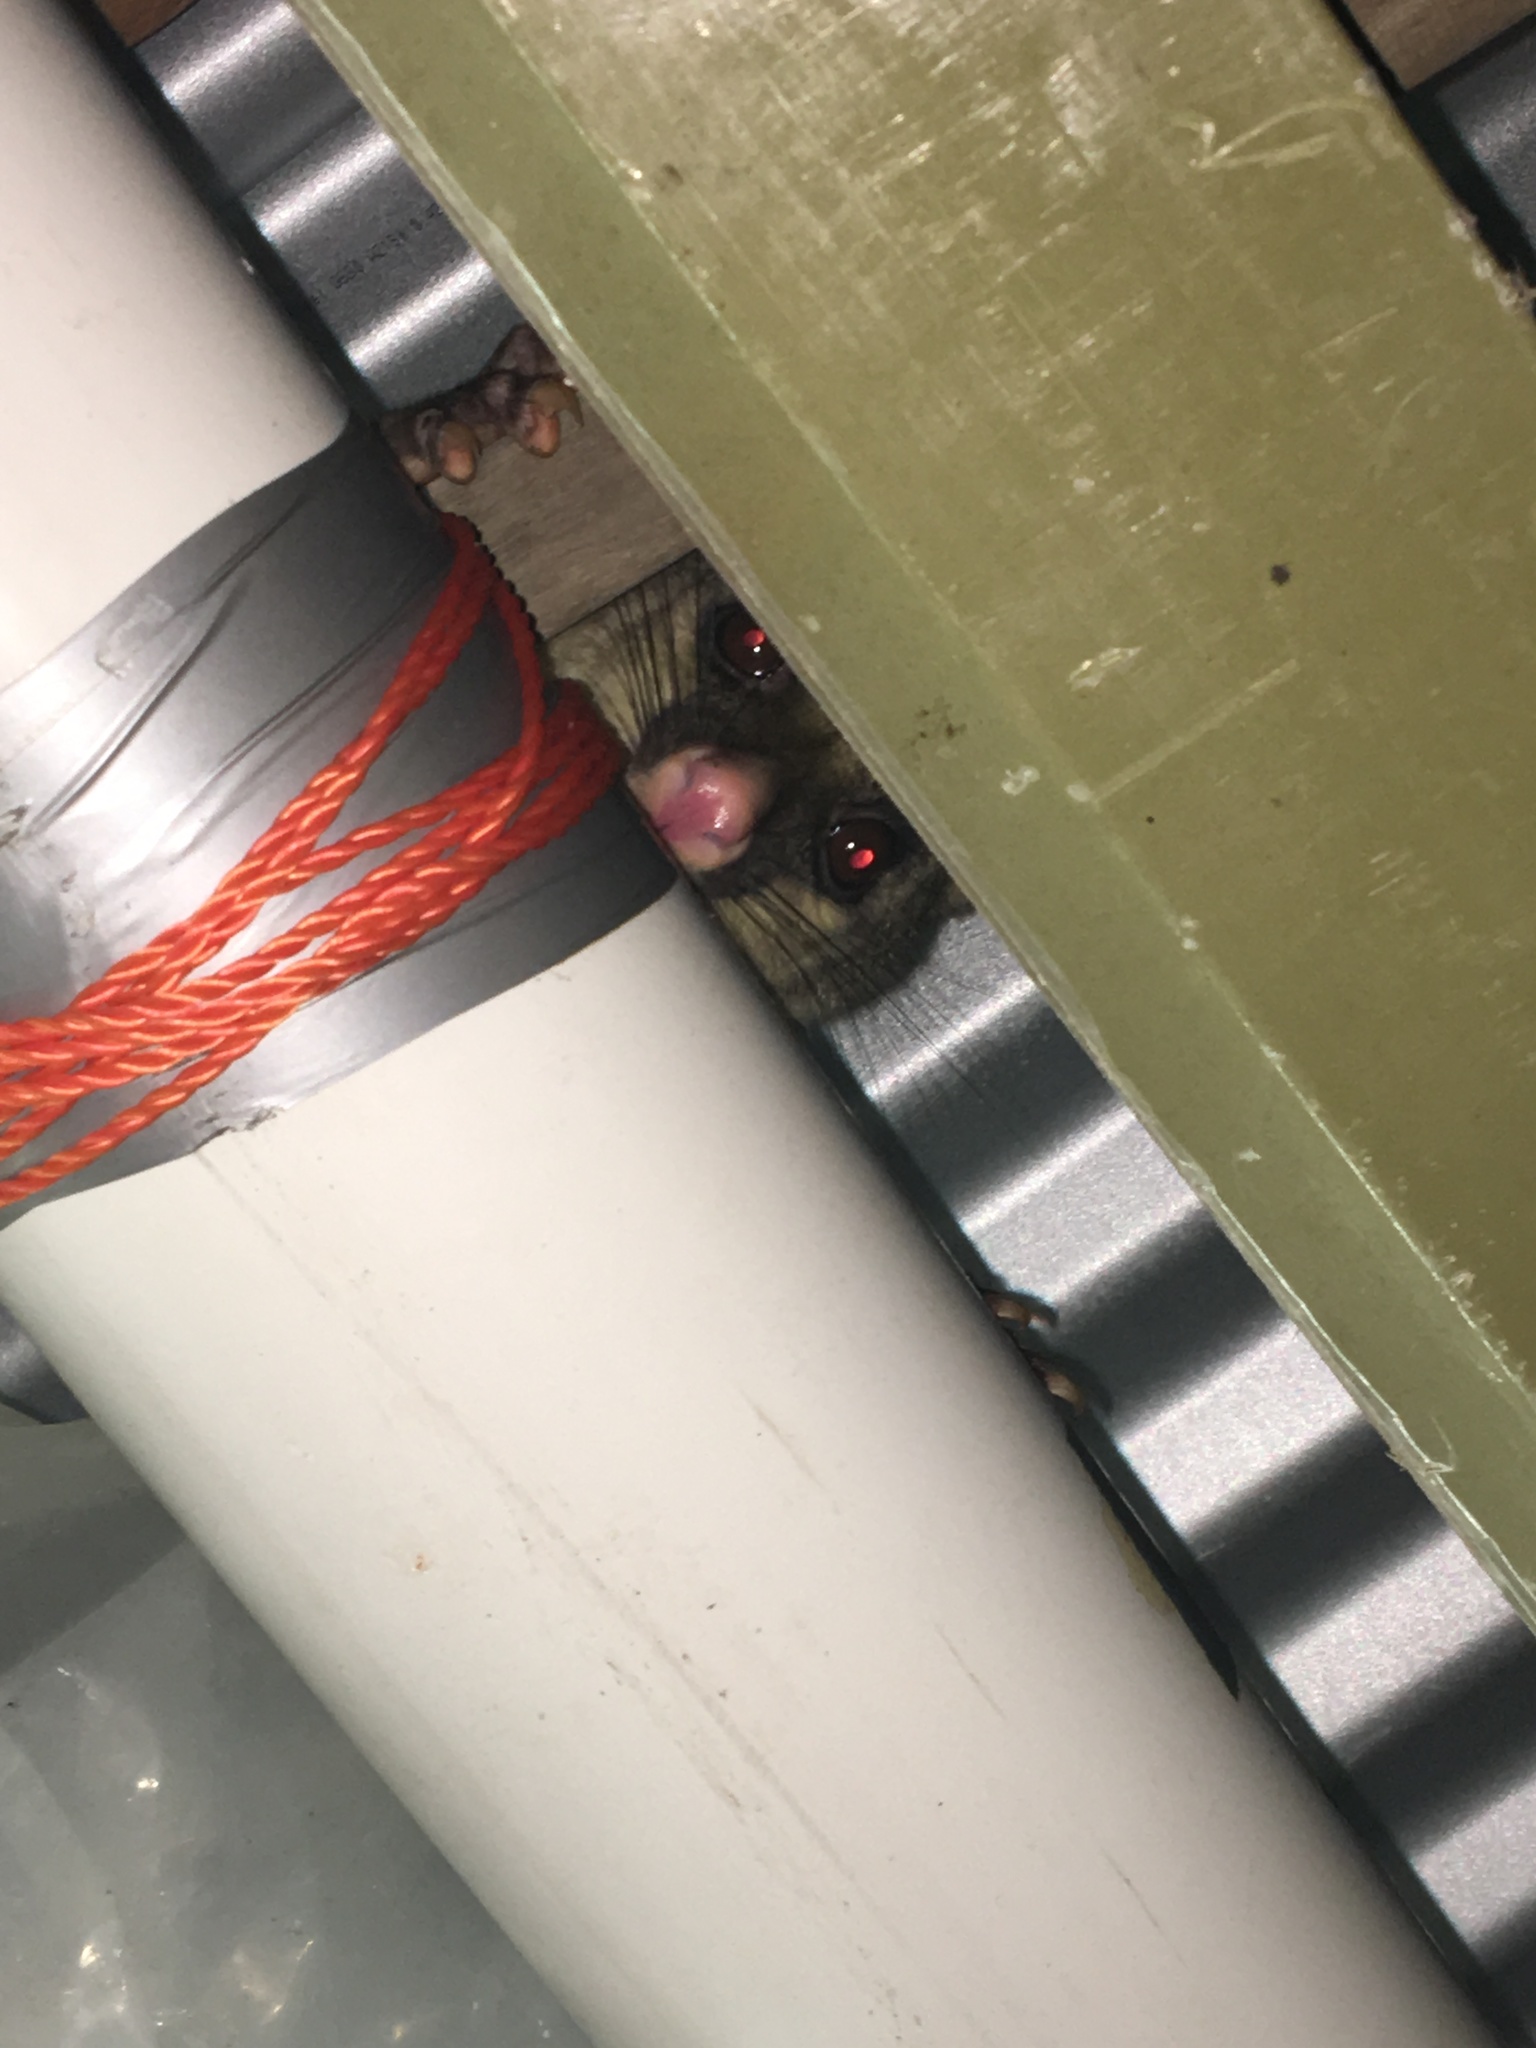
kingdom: Animalia
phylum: Chordata
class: Mammalia
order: Diprotodontia
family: Phalangeridae
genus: Trichosurus
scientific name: Trichosurus vulpecula
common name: Common brushtail
